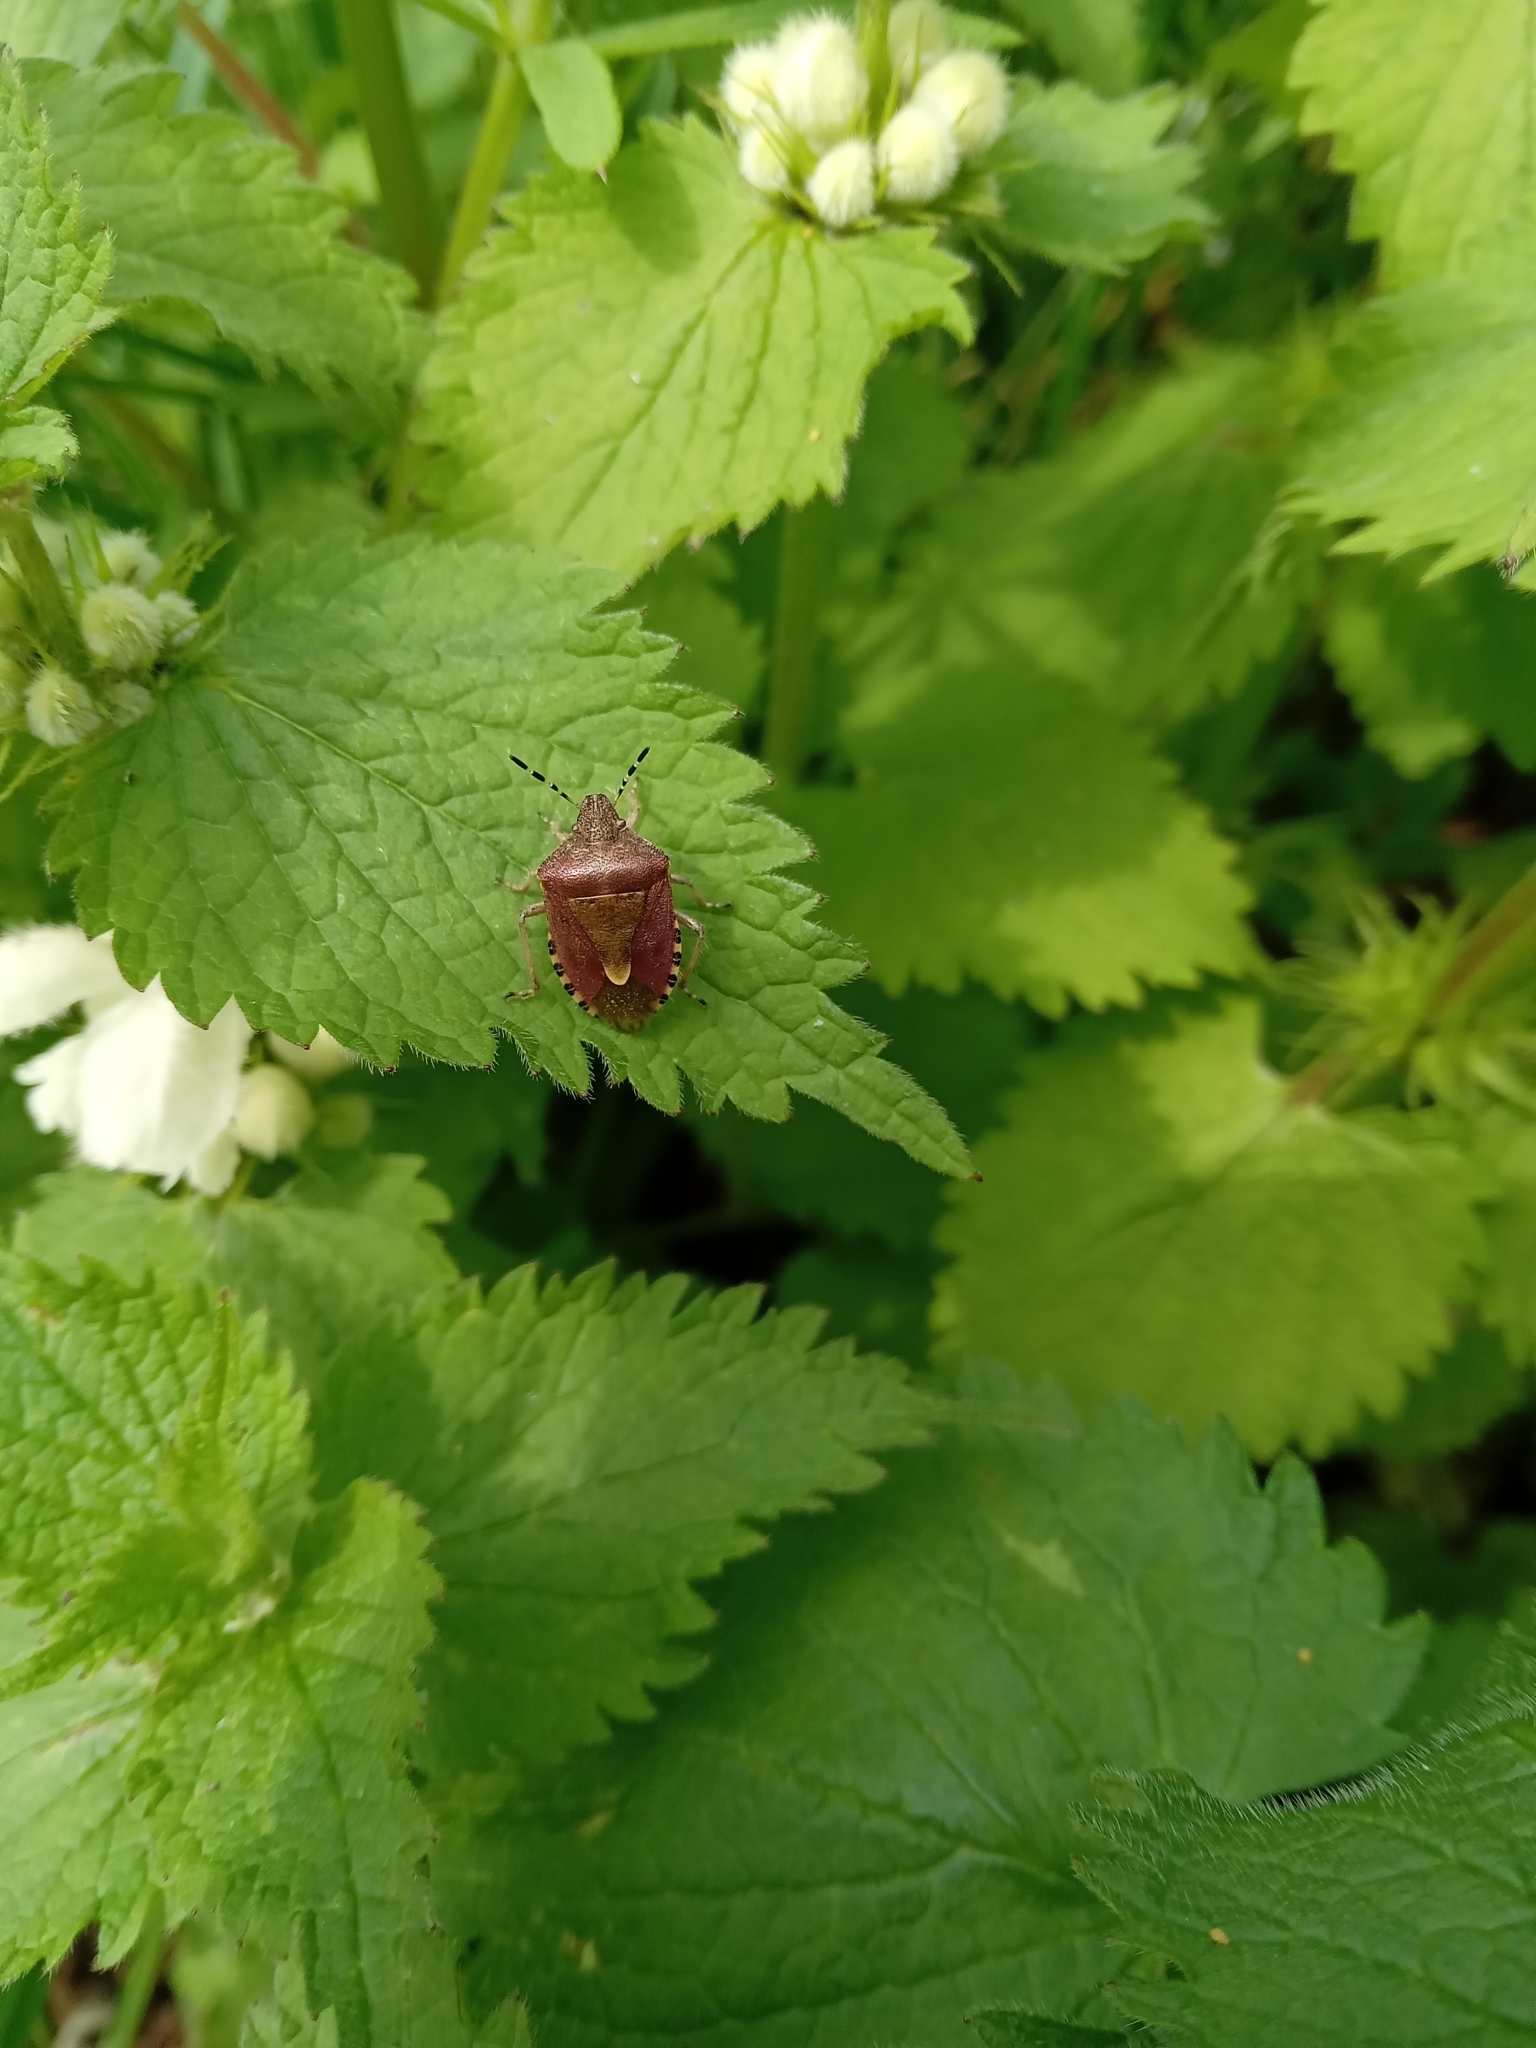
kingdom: Animalia
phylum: Arthropoda
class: Insecta
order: Hemiptera
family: Pentatomidae
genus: Dolycoris
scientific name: Dolycoris baccarum
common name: Sloe bug
